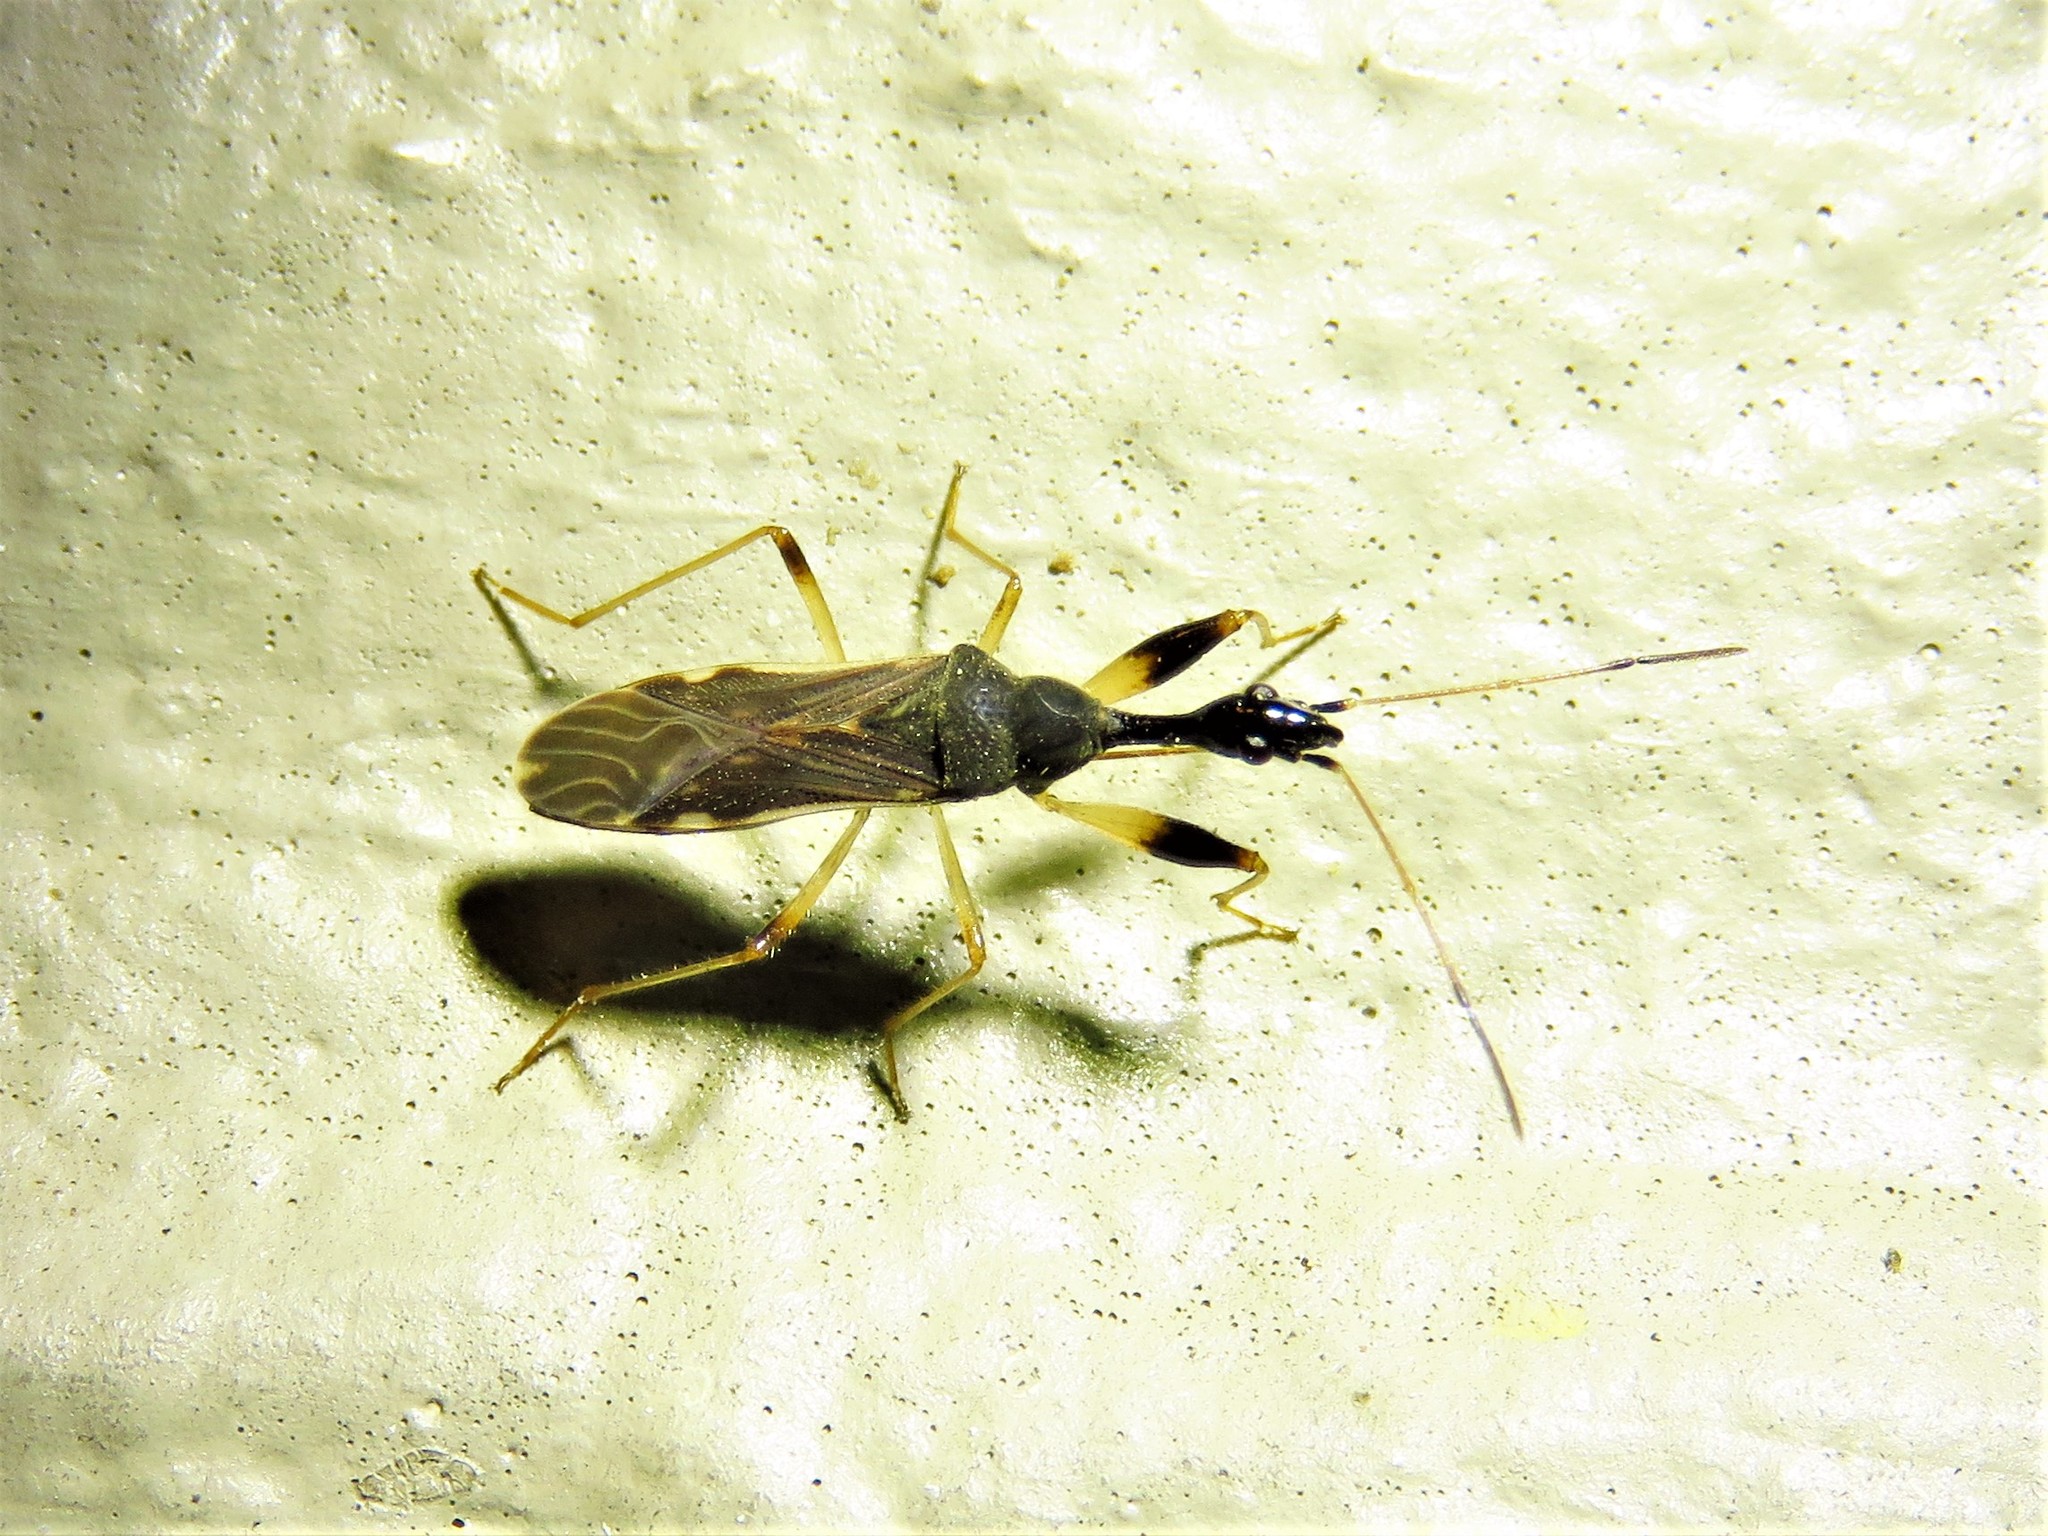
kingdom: Animalia
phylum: Arthropoda
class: Insecta
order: Hemiptera
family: Rhyparochromidae
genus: Myodocha
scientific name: Myodocha serripes
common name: Long-necked seed bug
